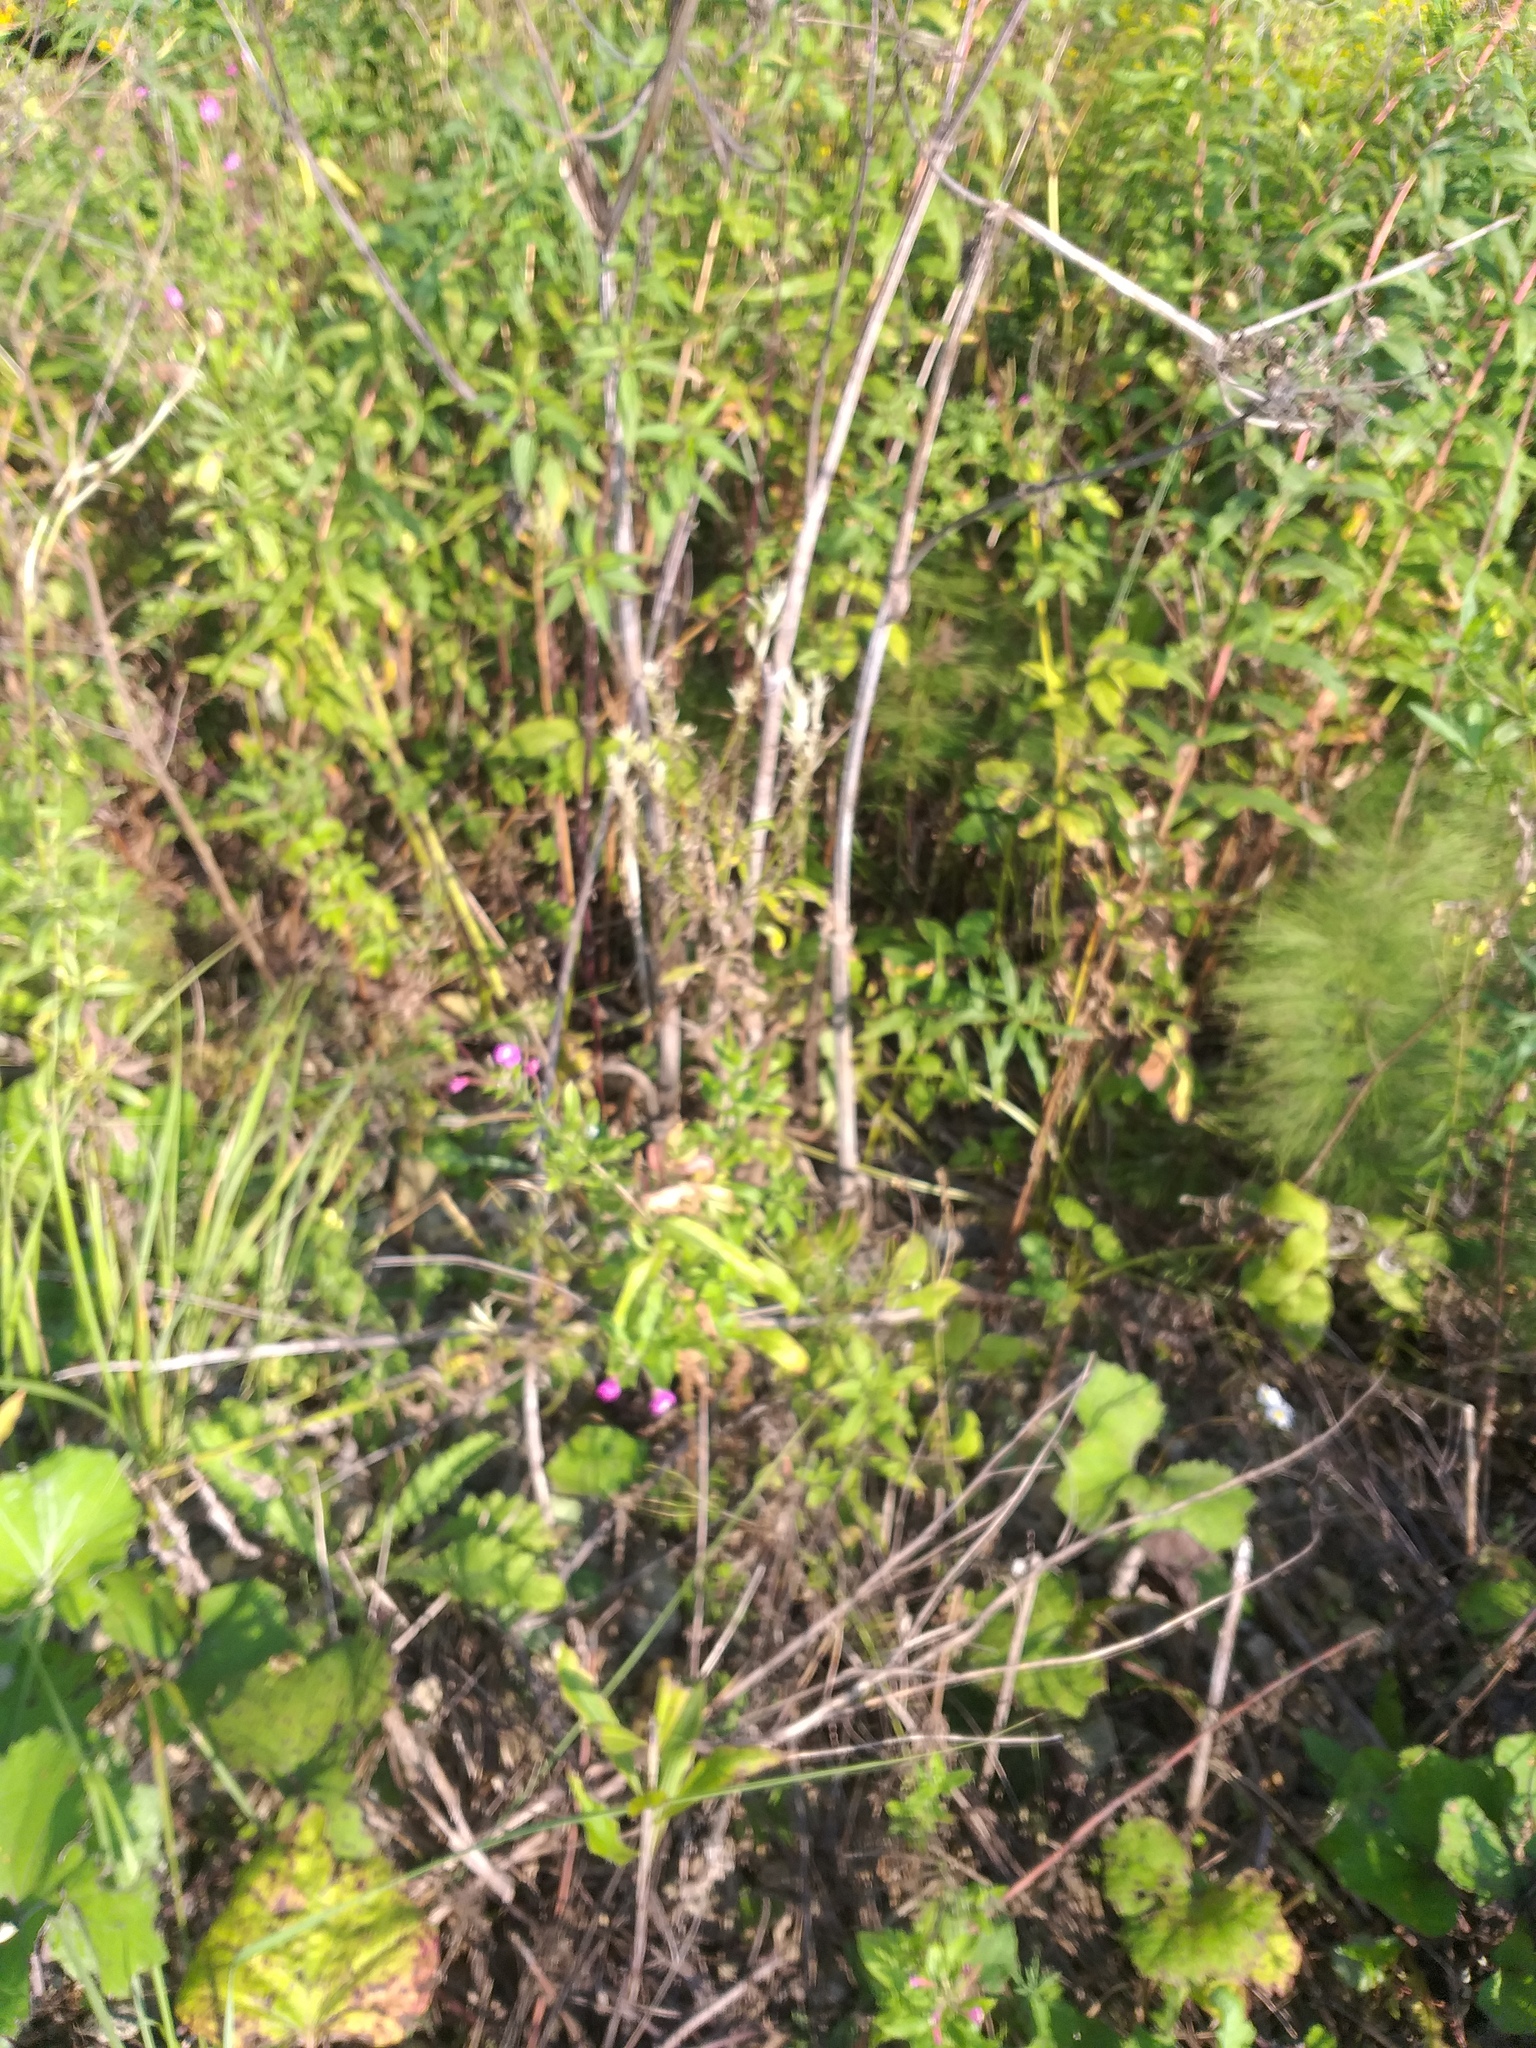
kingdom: Plantae
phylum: Tracheophyta
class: Magnoliopsida
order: Myrtales
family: Onagraceae
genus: Epilobium
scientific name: Epilobium hirsutum
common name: Great willowherb
